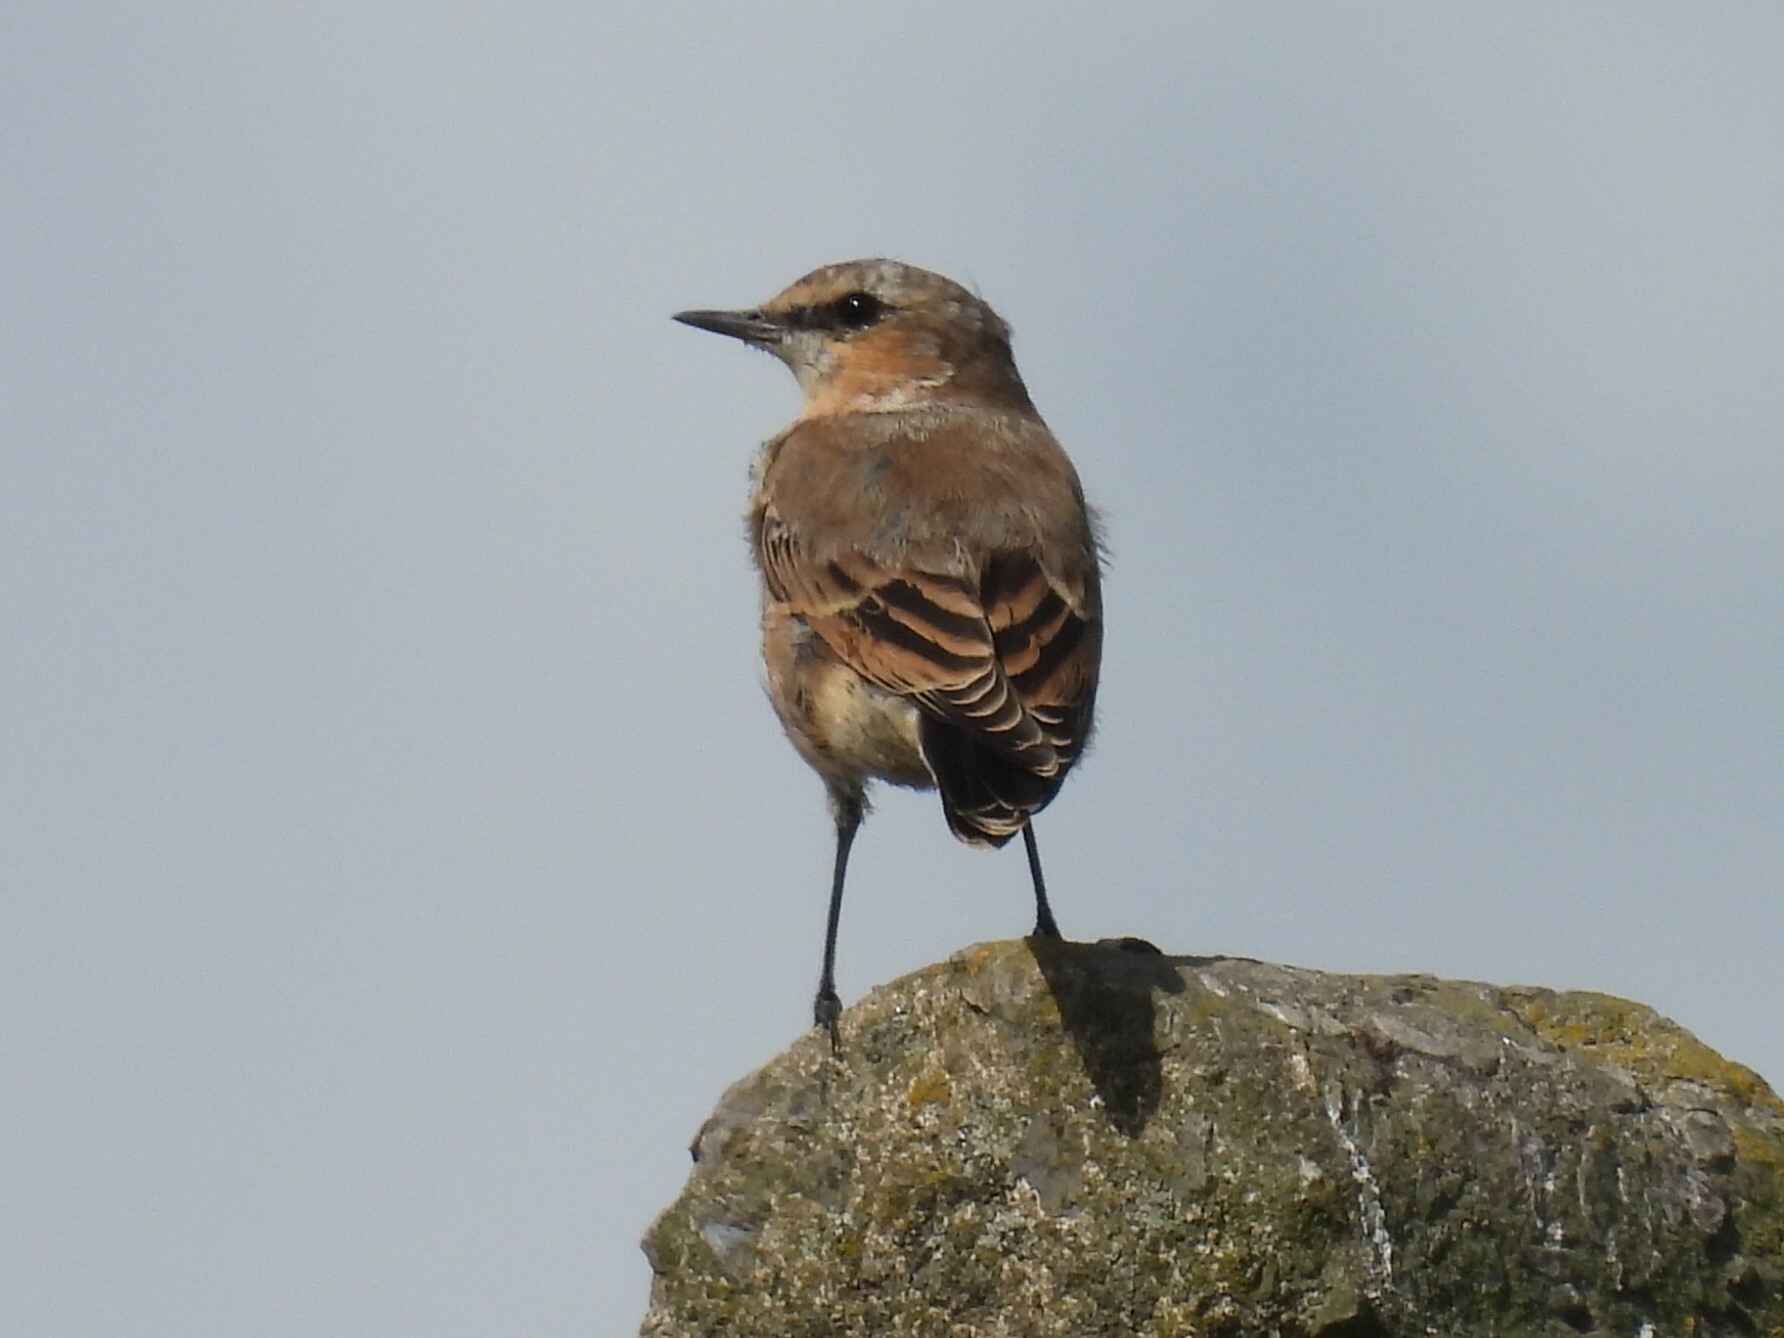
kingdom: Animalia
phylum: Chordata
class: Aves
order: Passeriformes
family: Muscicapidae
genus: Oenanthe
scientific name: Oenanthe oenanthe
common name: Northern wheatear
